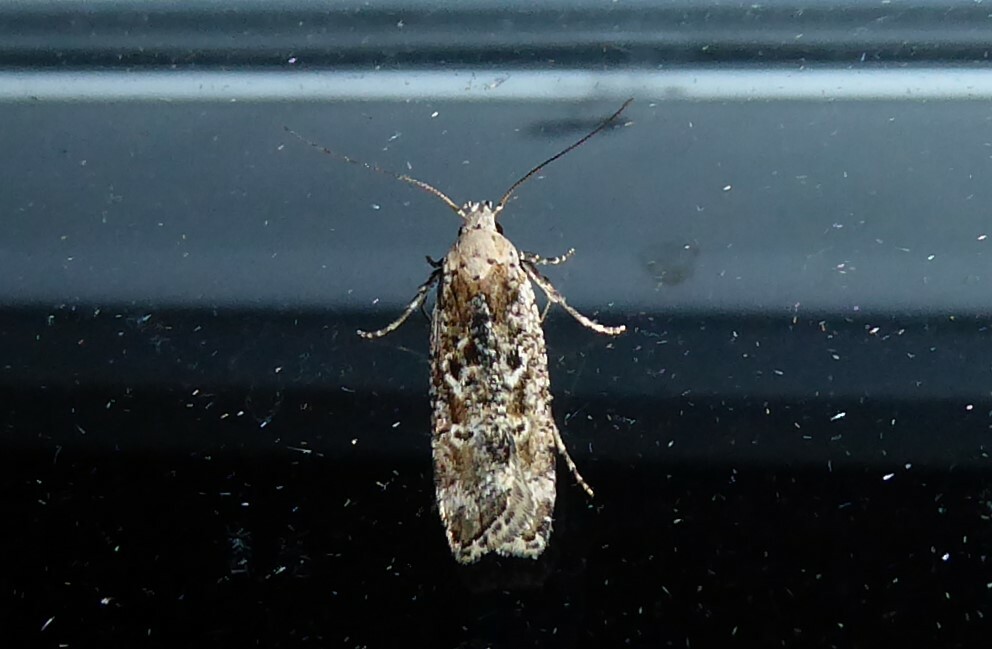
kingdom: Animalia
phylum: Arthropoda
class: Insecta
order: Lepidoptera
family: Gelechiidae
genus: Anisoplaca
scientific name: Anisoplaca achyrota
